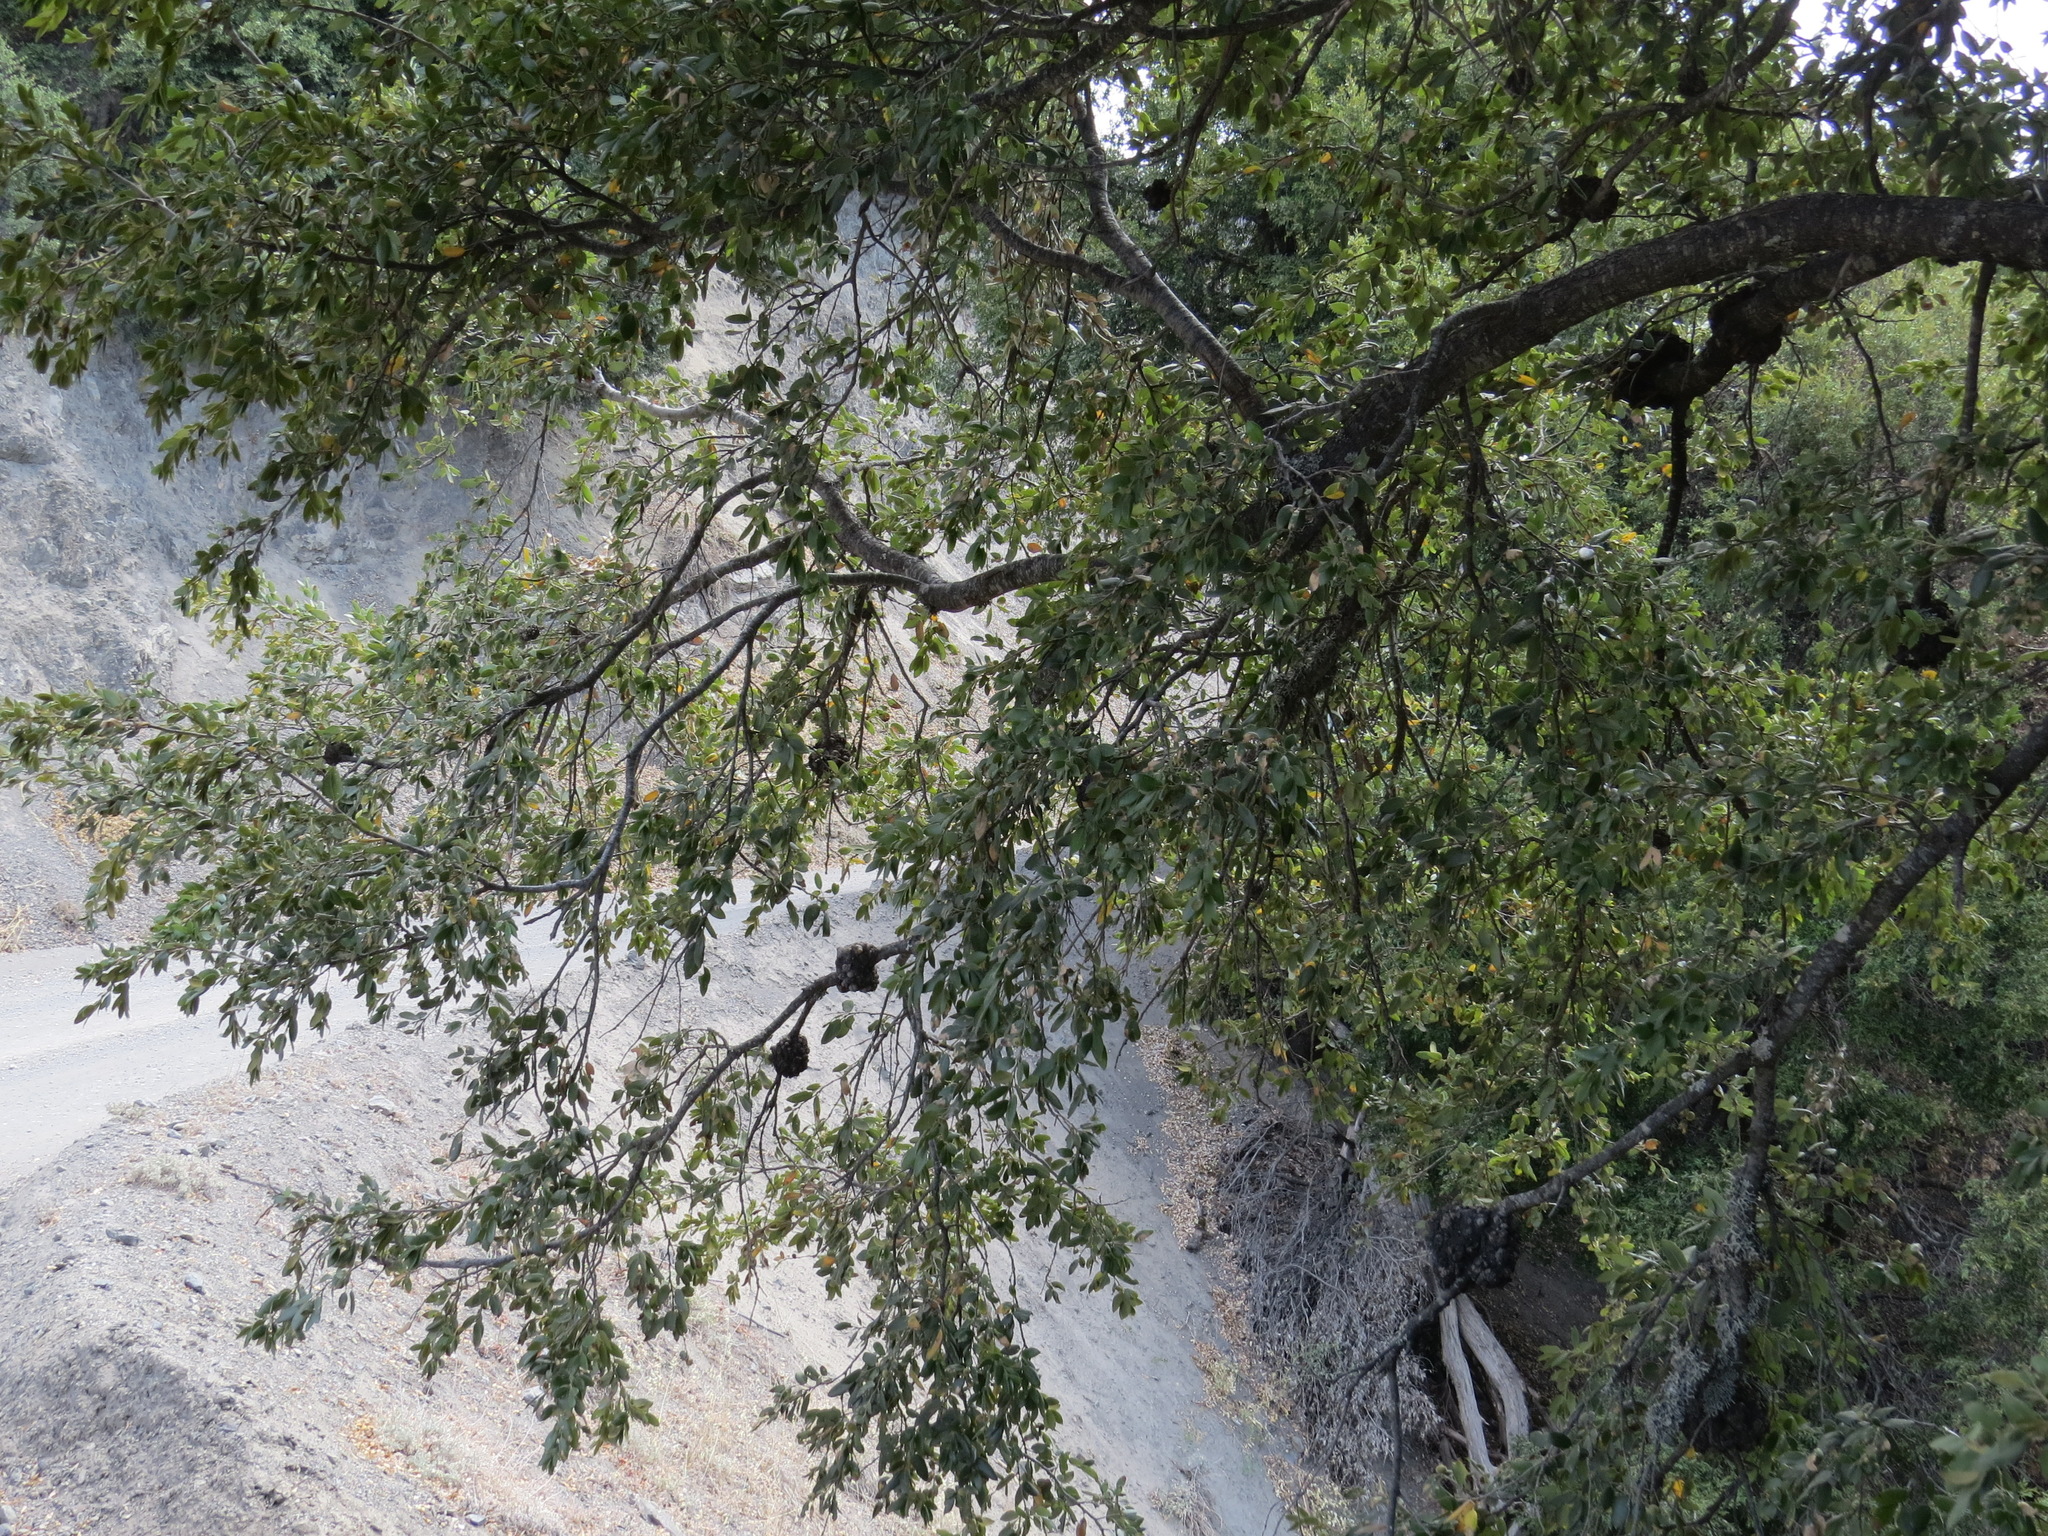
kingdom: Bacteria
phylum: Proteobacteria
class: Alphaproteobacteria
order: Rhizobiales
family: Rhizobiaceae
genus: Rhizobium
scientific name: Rhizobium Agrobacterium radiobacter
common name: Bacterial crown gall
